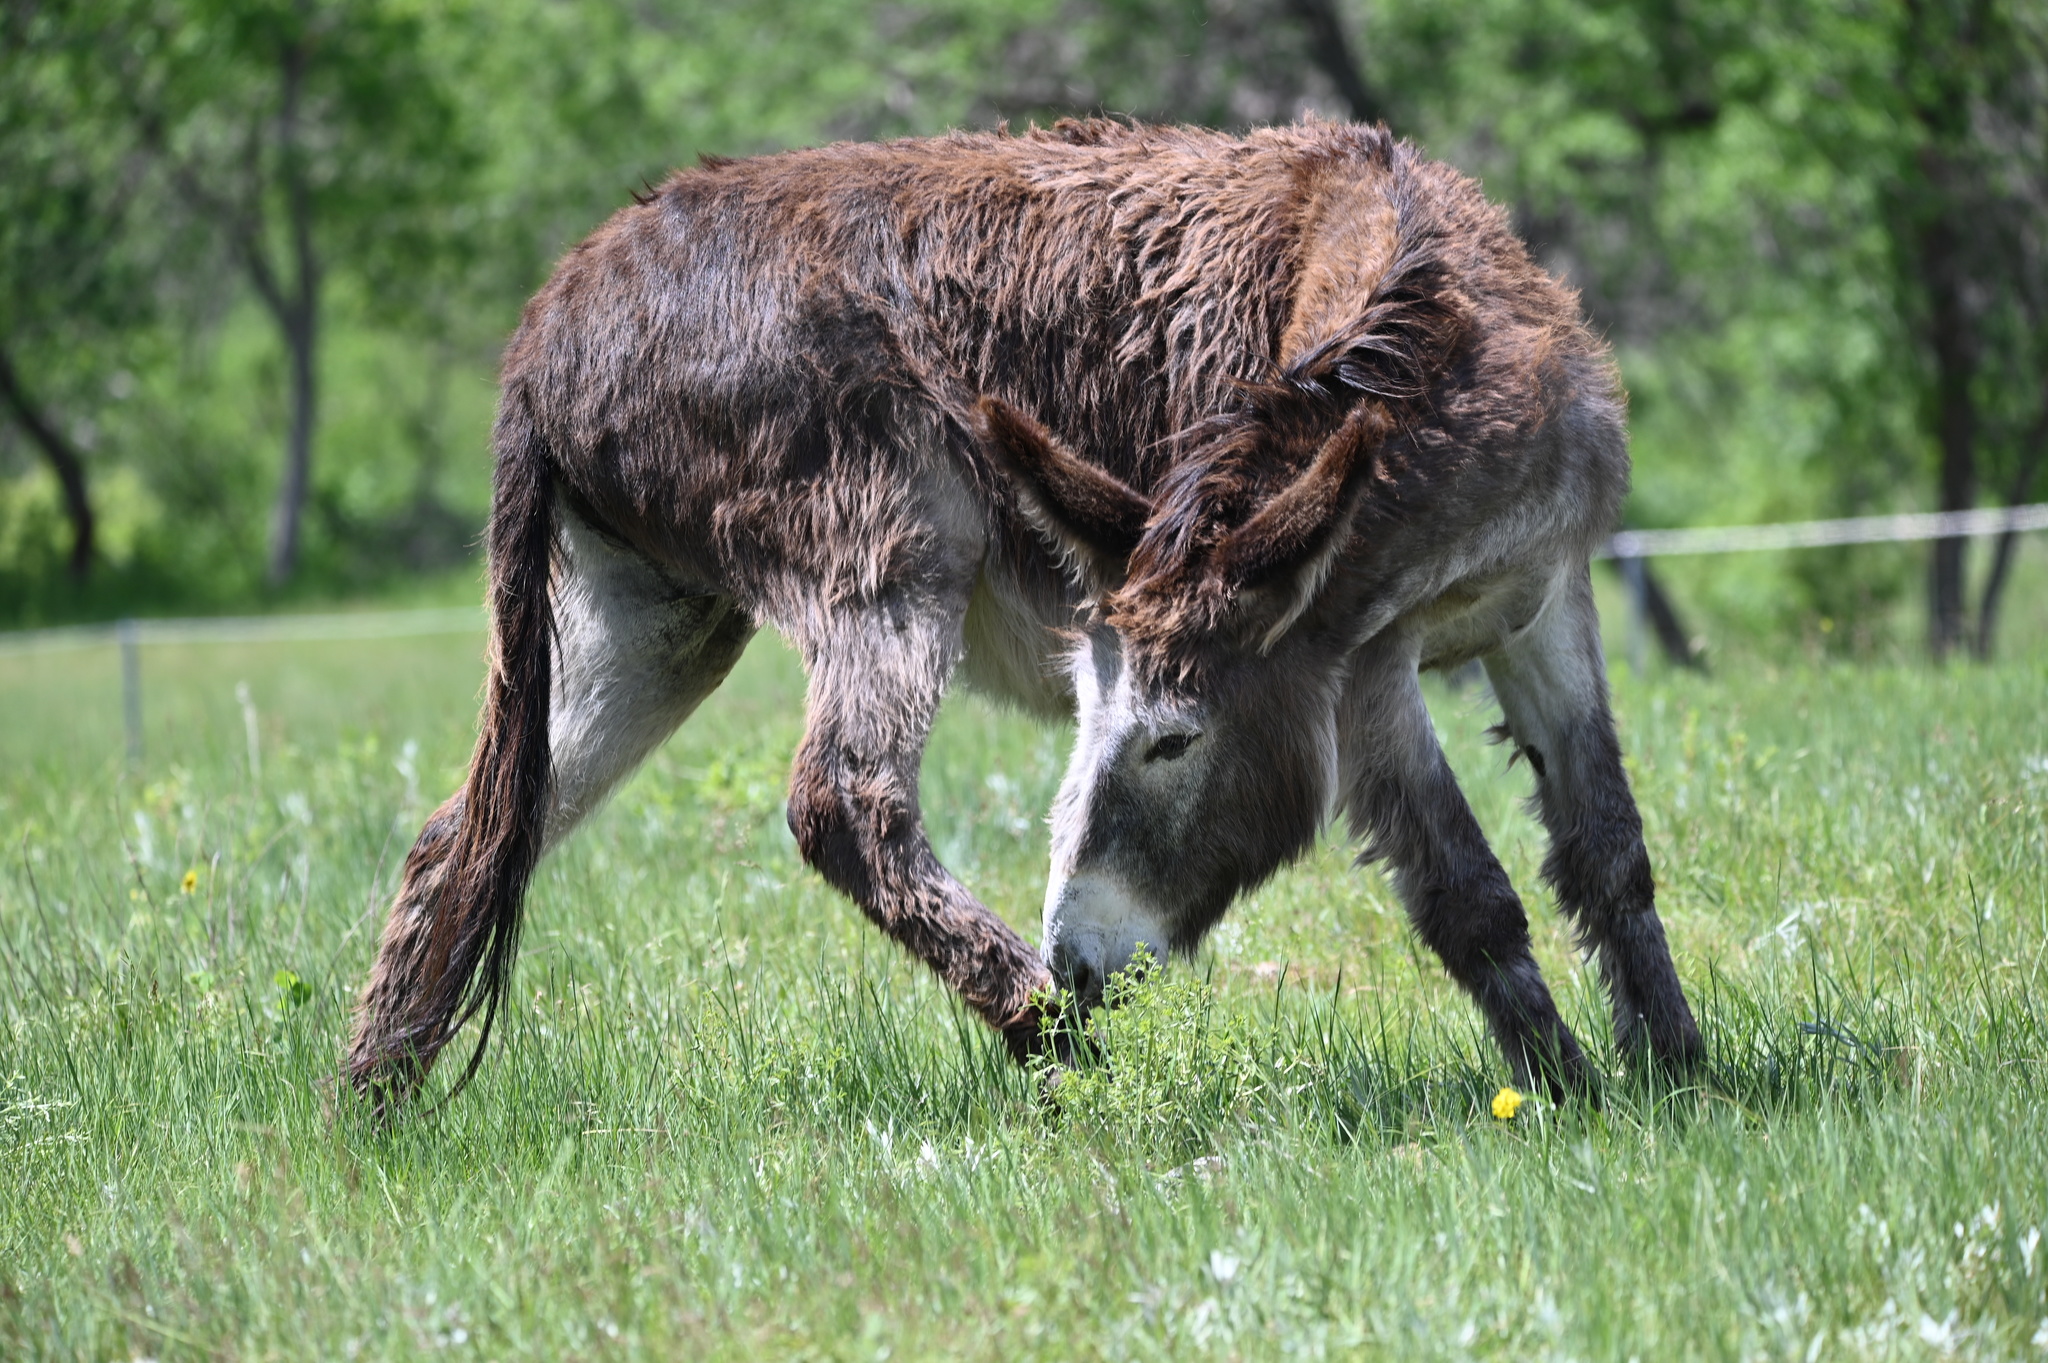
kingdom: Animalia
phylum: Chordata
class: Mammalia
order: Perissodactyla
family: Equidae
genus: Equus
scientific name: Equus asinus
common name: Ass
